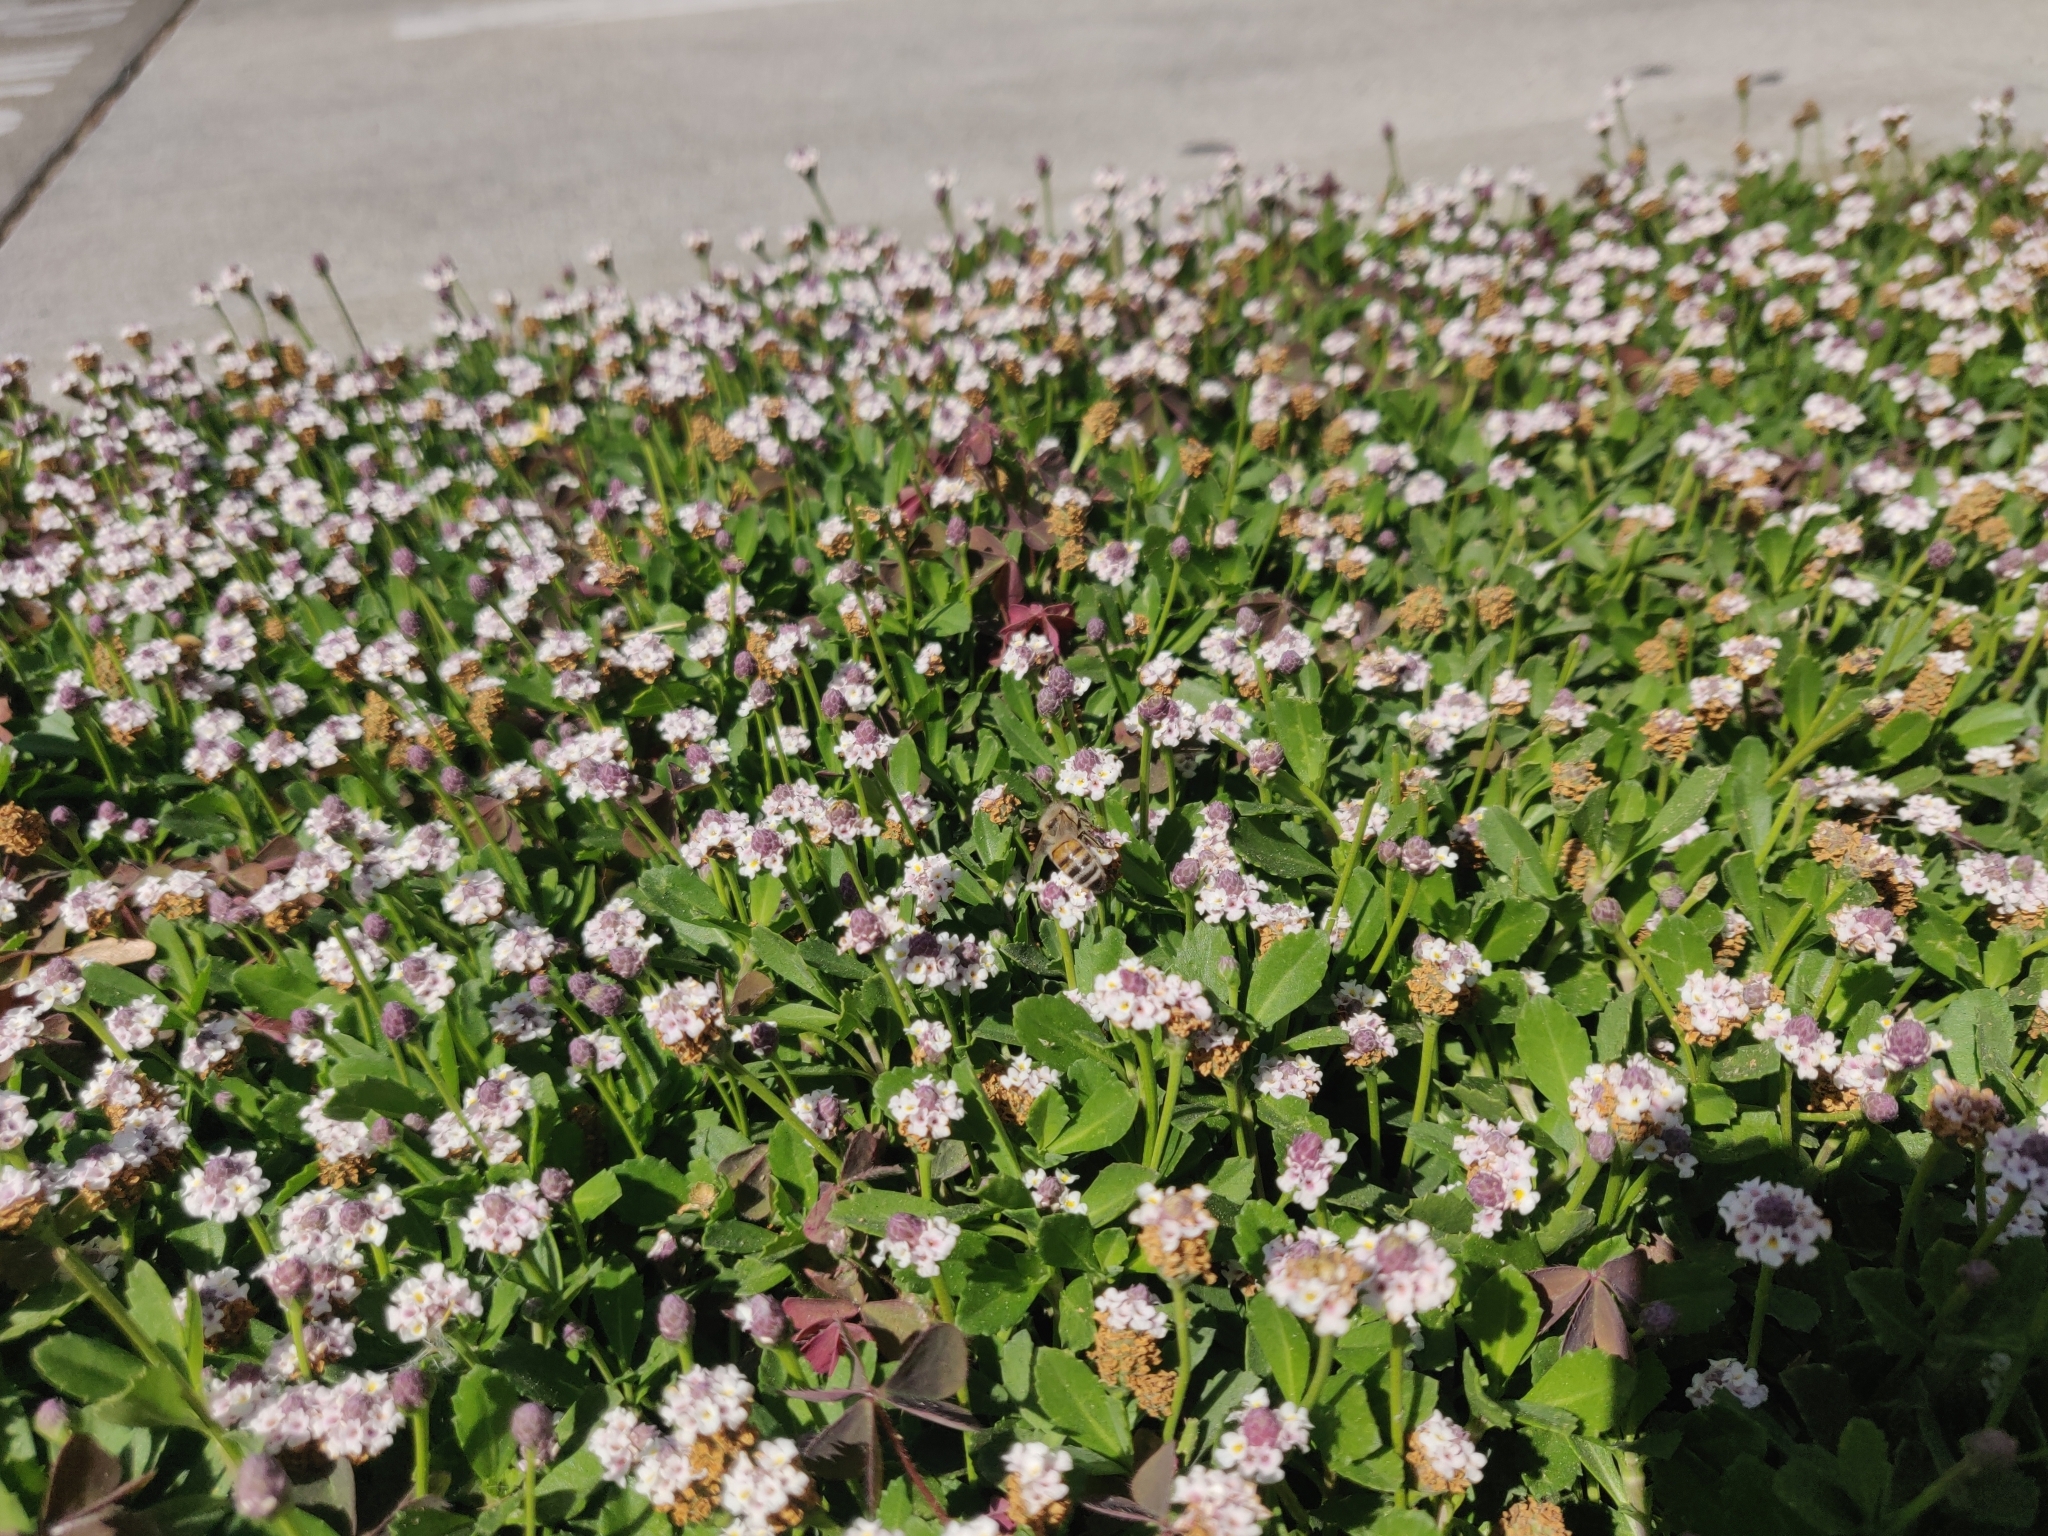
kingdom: Animalia
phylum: Arthropoda
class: Insecta
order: Hymenoptera
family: Apidae
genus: Apis
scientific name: Apis mellifera
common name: Honey bee
